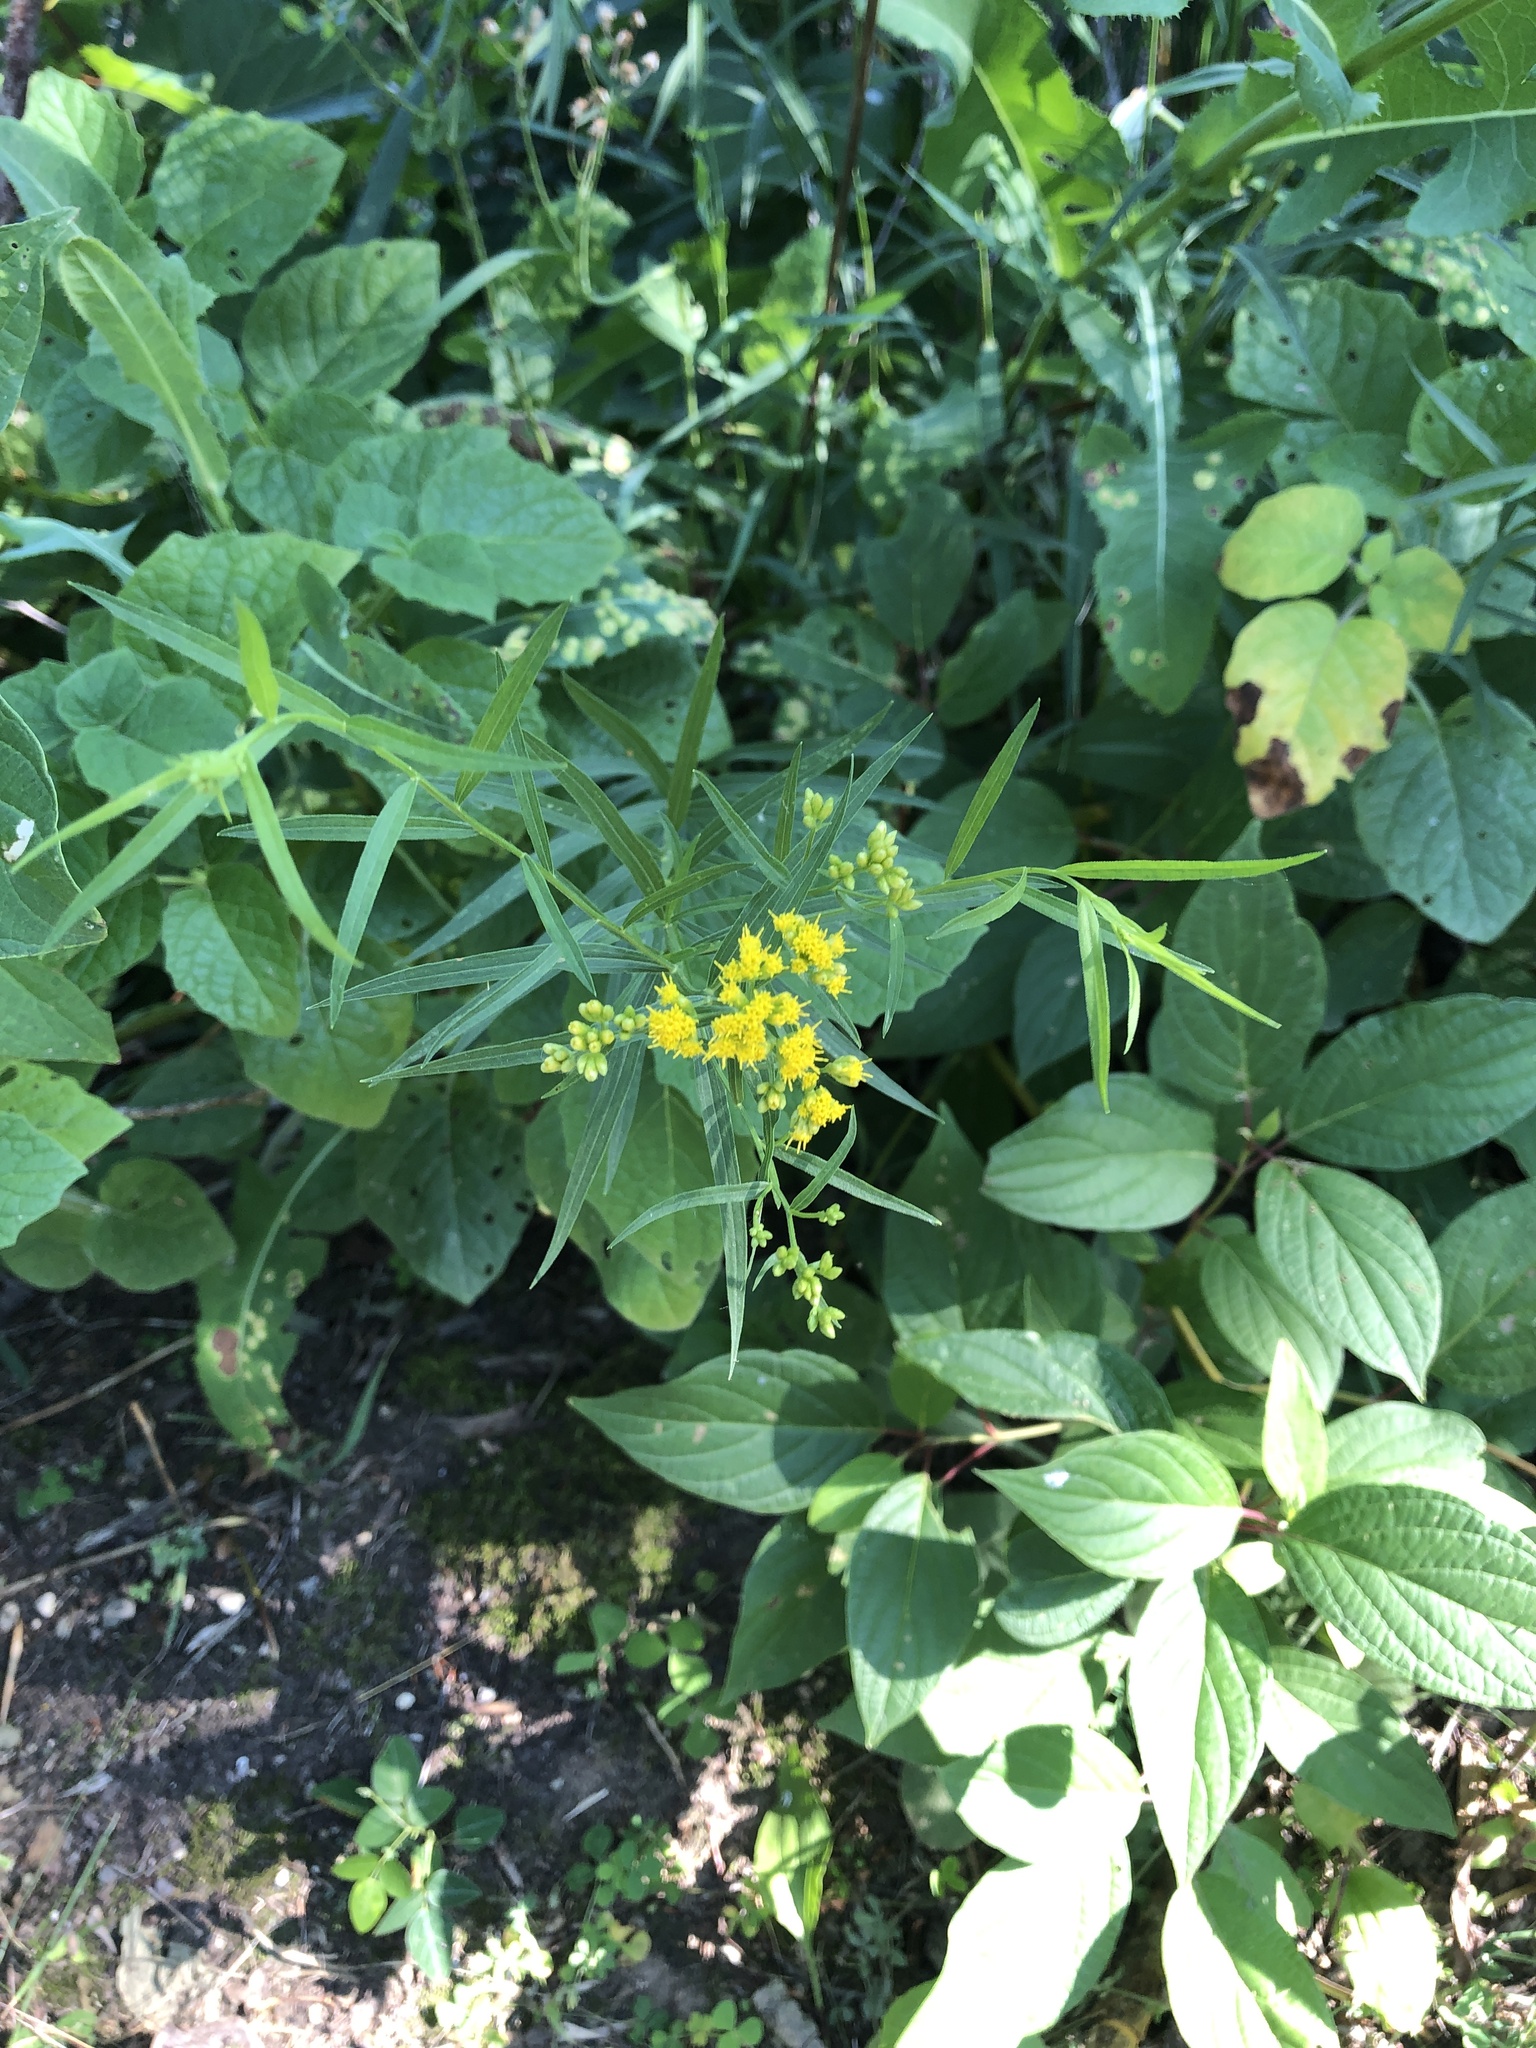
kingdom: Plantae
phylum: Tracheophyta
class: Magnoliopsida
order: Asterales
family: Asteraceae
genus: Euthamia
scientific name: Euthamia graminifolia
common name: Common goldentop
